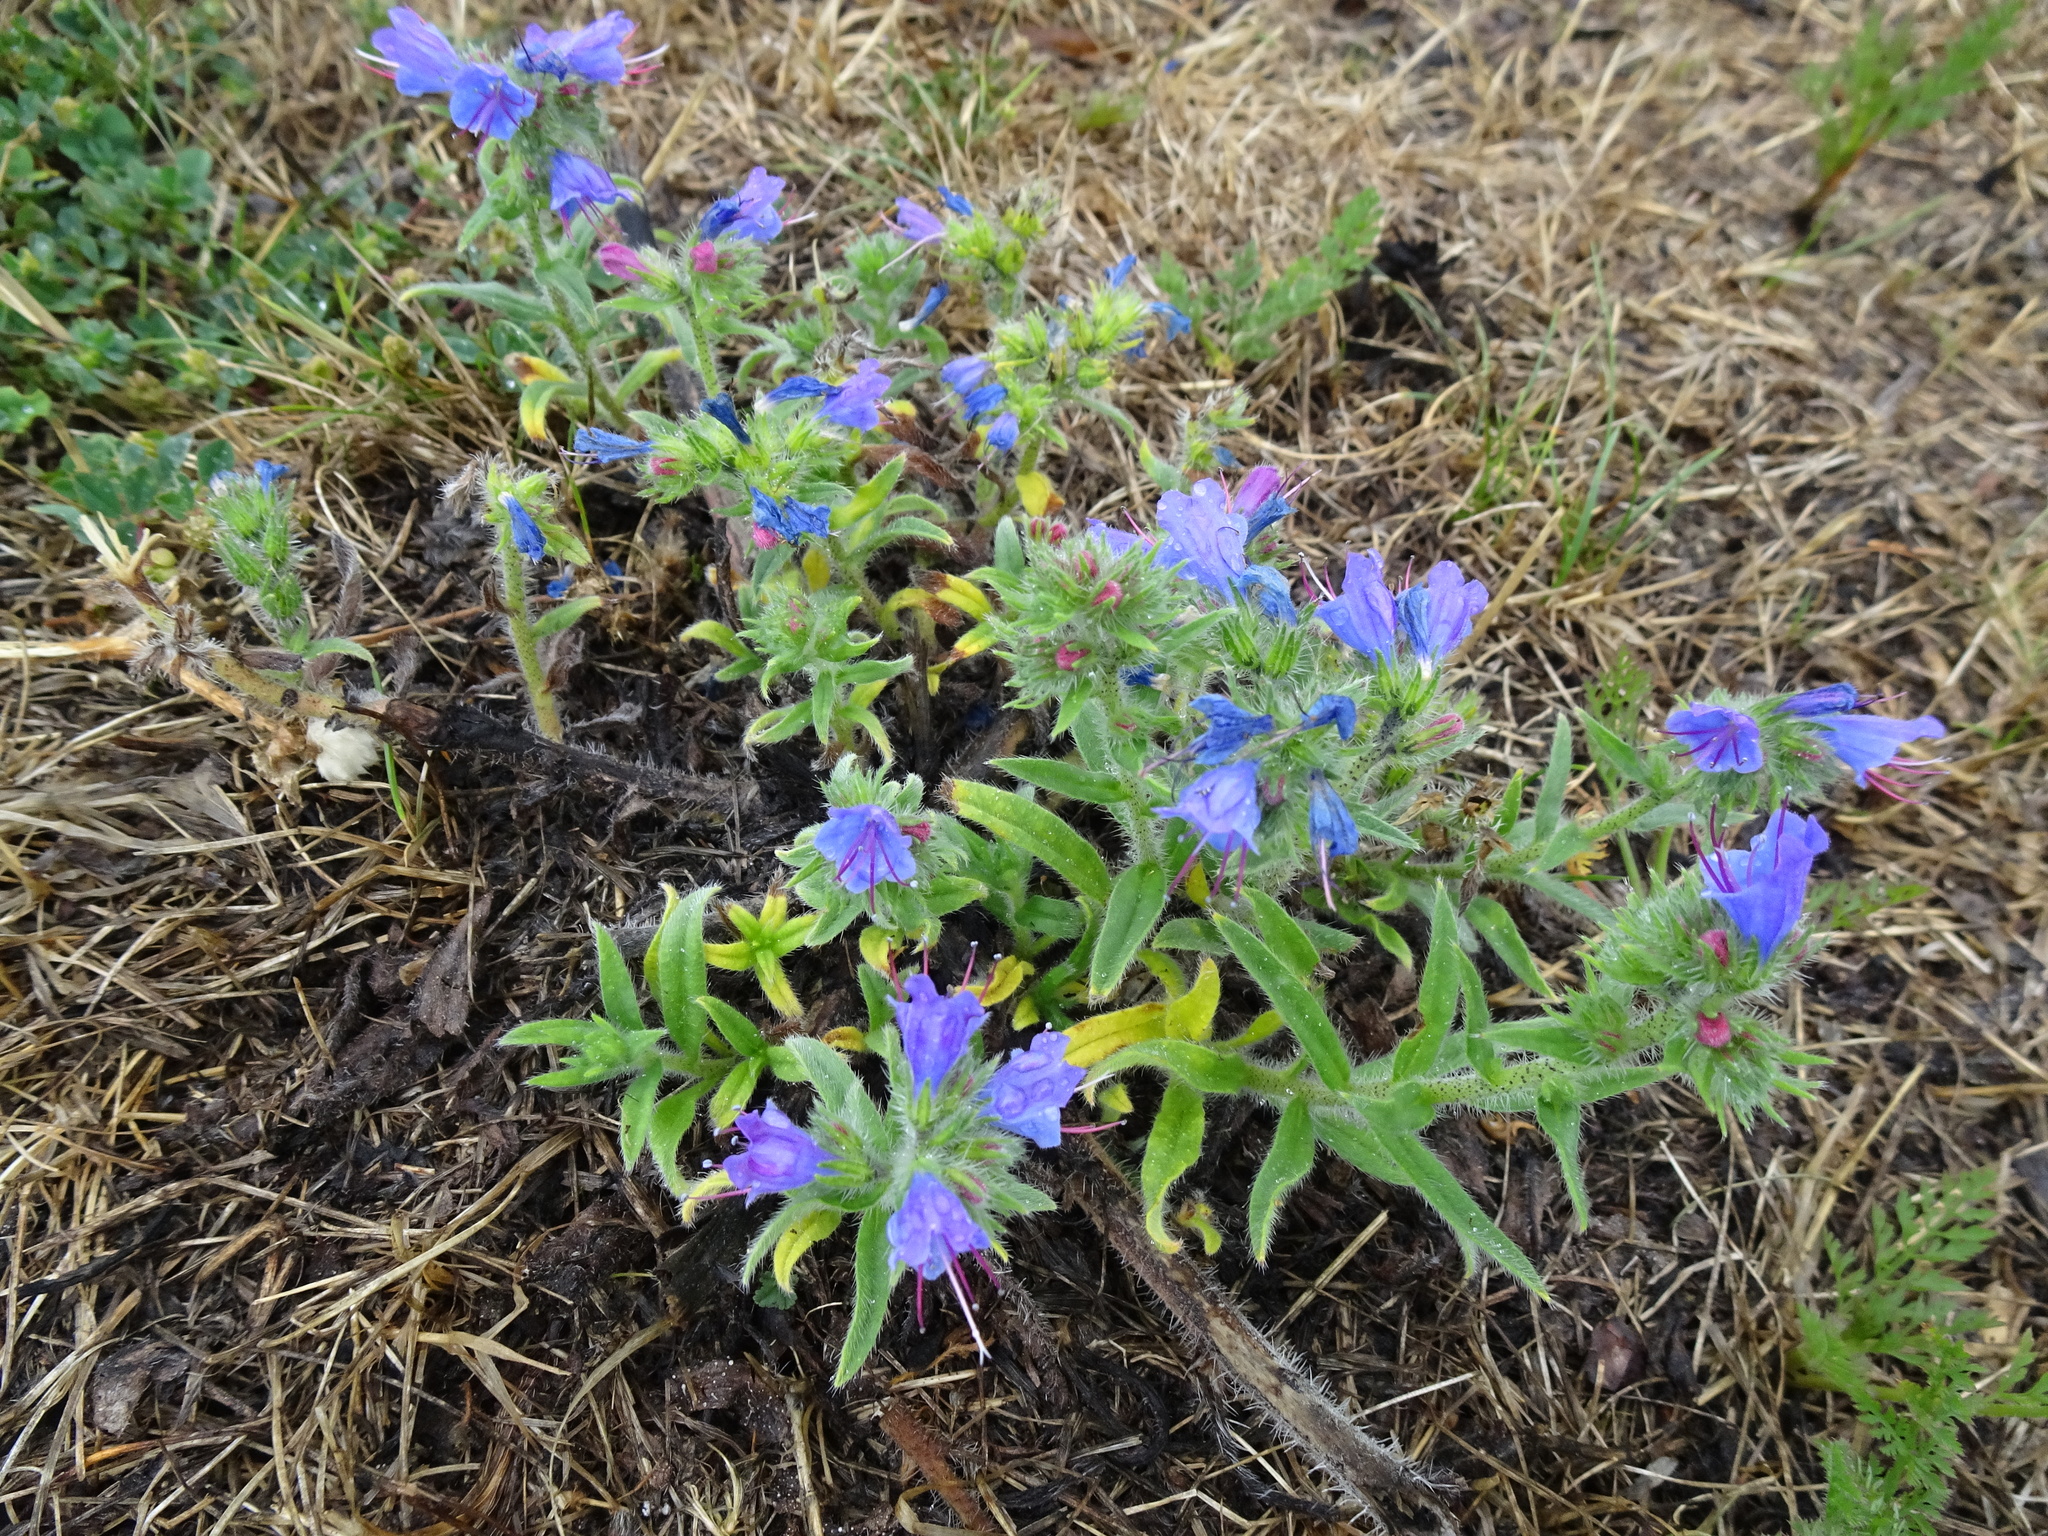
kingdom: Plantae
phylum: Tracheophyta
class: Magnoliopsida
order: Boraginales
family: Boraginaceae
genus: Echium
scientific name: Echium vulgare
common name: Common viper's bugloss
